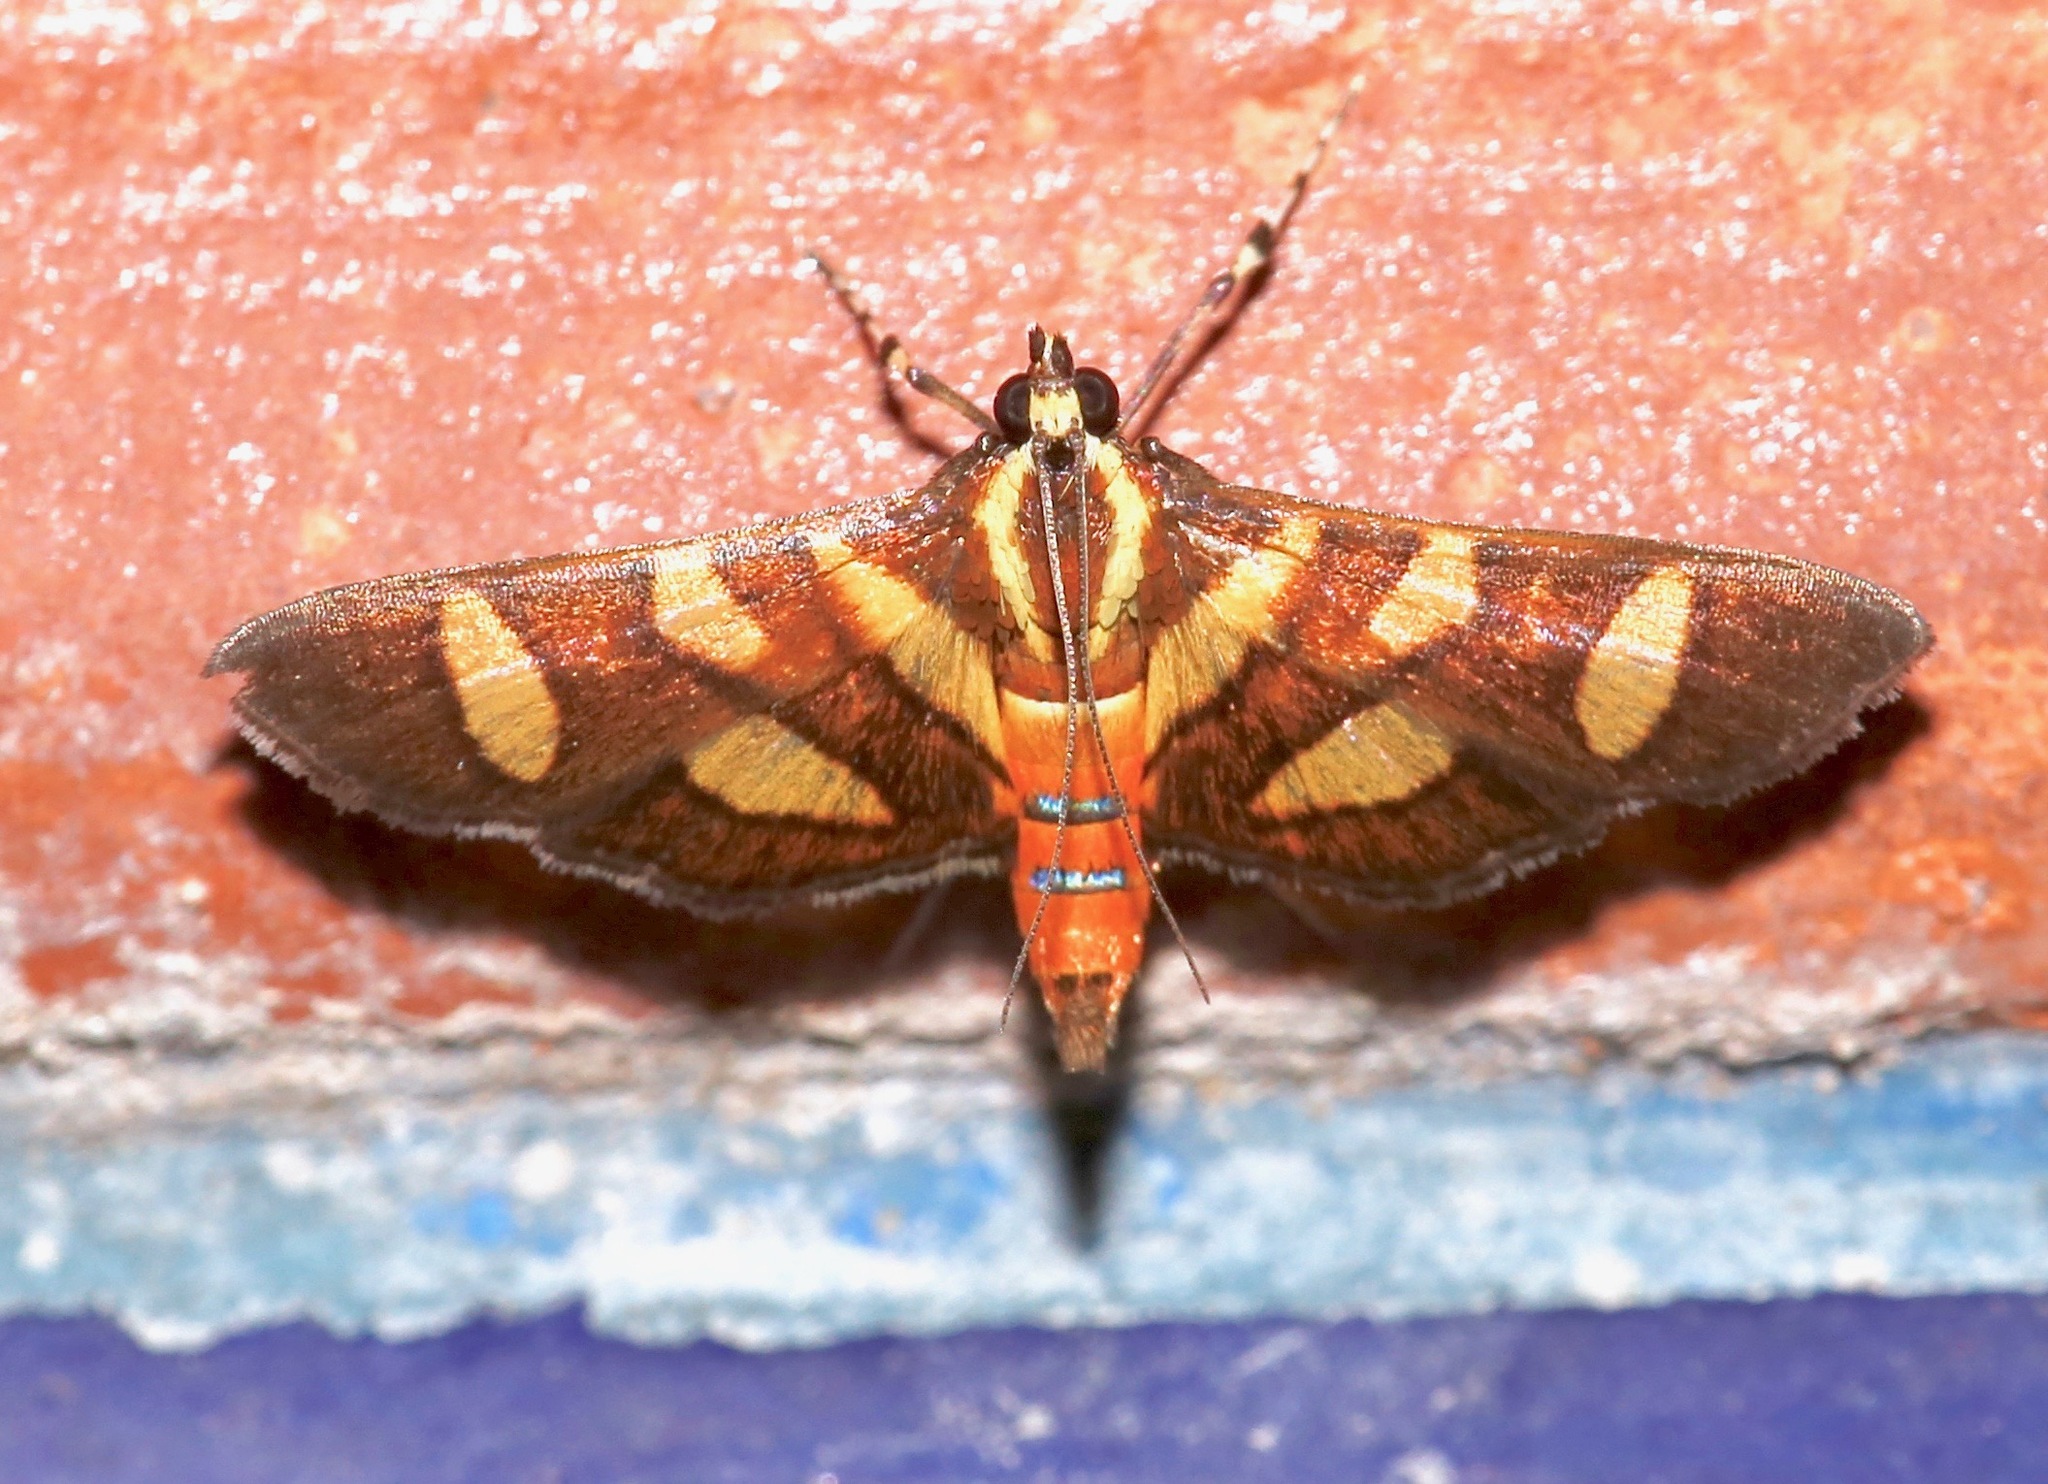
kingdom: Animalia
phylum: Arthropoda
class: Insecta
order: Lepidoptera
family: Crambidae
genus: Syngamia
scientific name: Syngamia florella
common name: Orange-spotted flower moth
